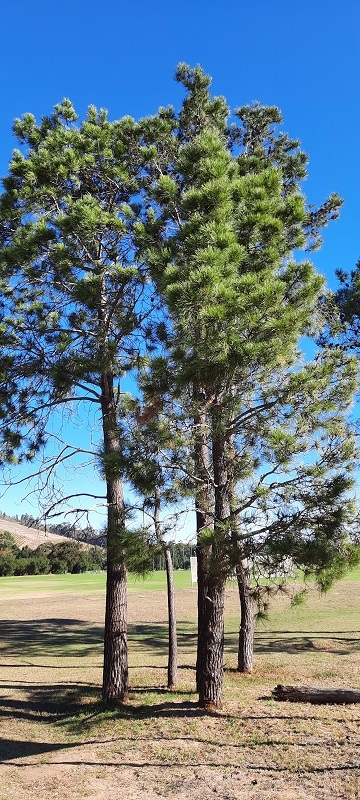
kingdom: Plantae
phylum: Tracheophyta
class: Pinopsida
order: Pinales
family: Pinaceae
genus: Pinus
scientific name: Pinus radiata
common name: Monterey pine
